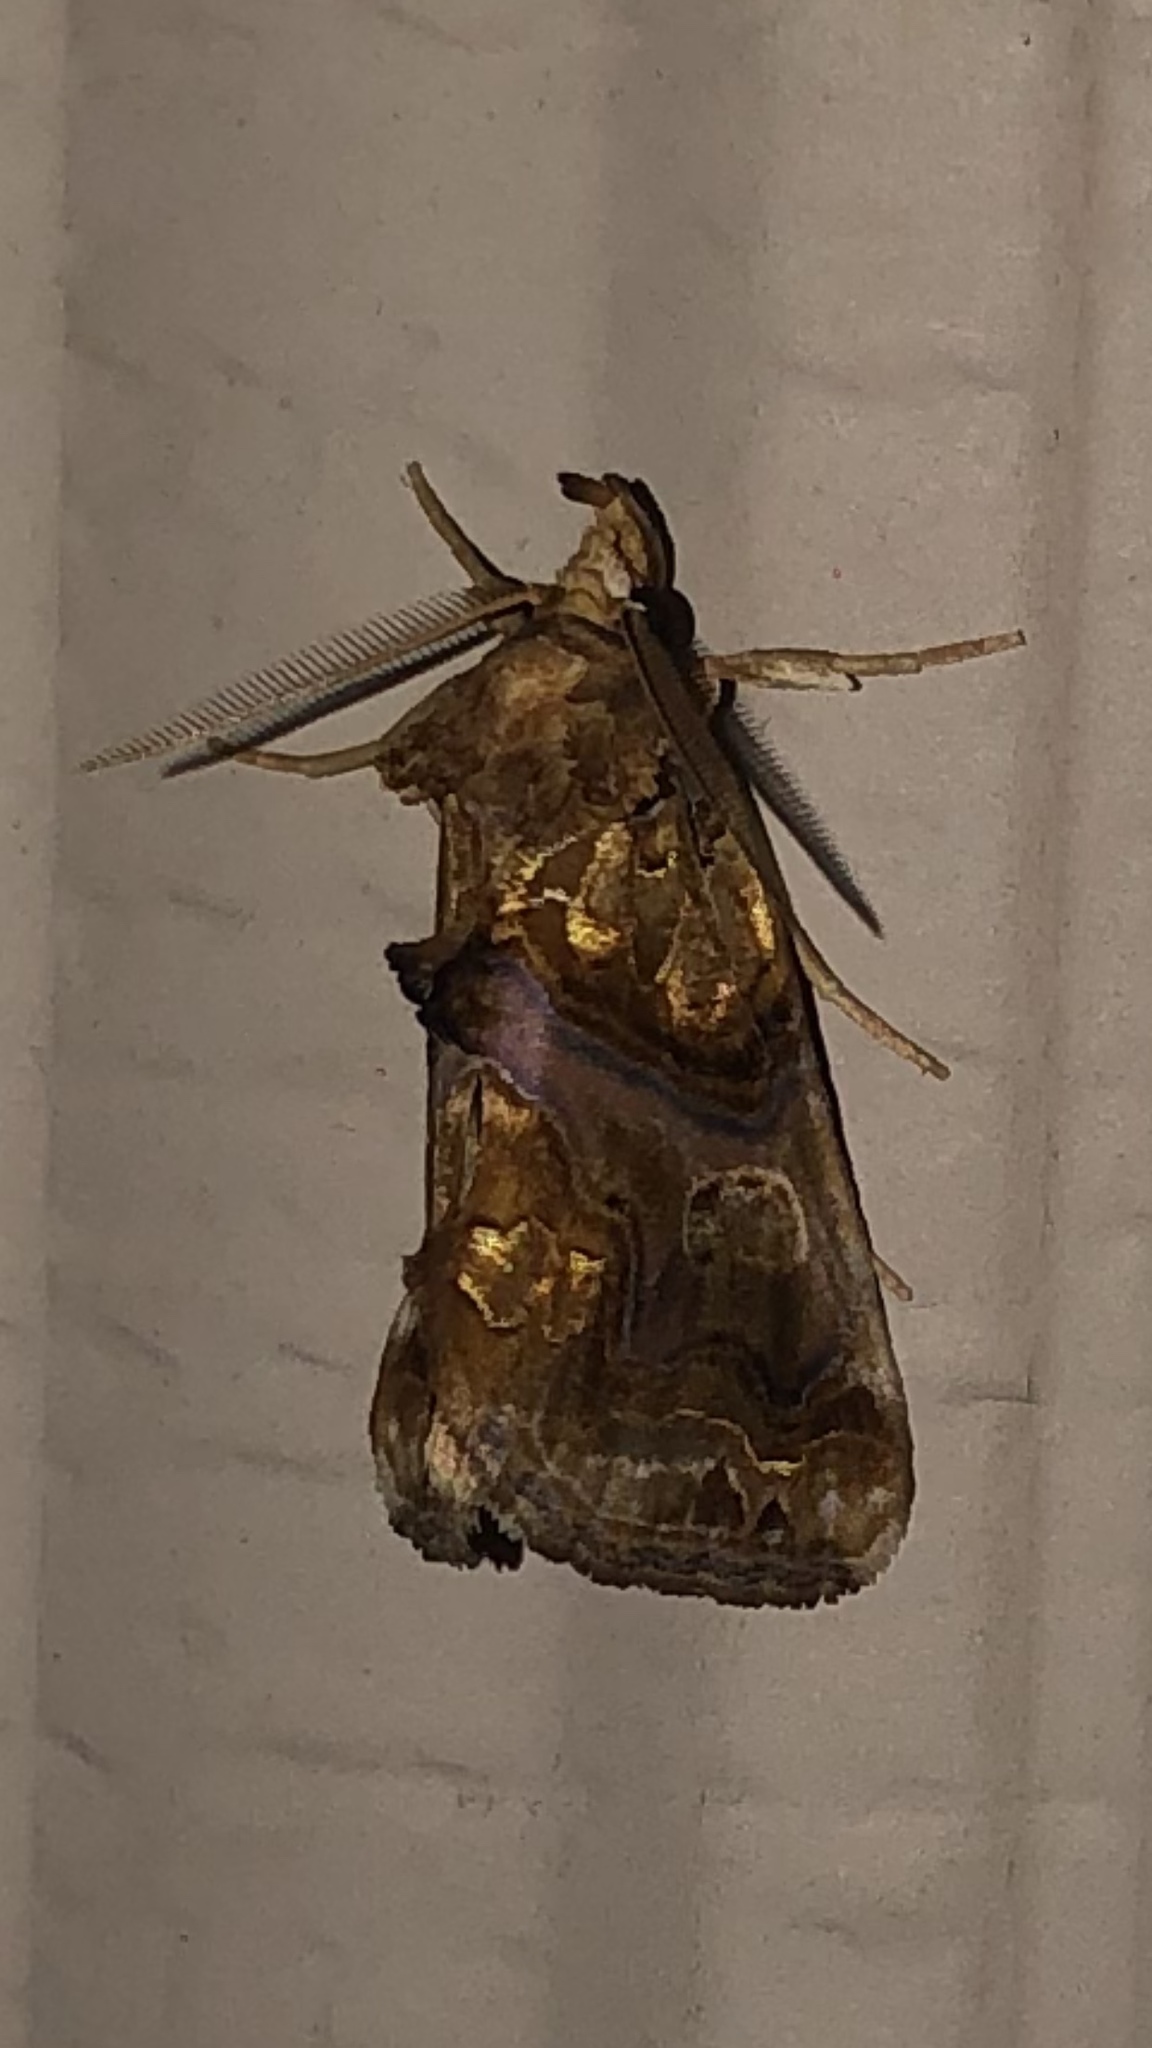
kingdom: Animalia
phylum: Arthropoda
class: Insecta
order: Lepidoptera
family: Erebidae
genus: Plusiodonta
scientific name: Plusiodonta compressipalpis
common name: Moonseed moth
